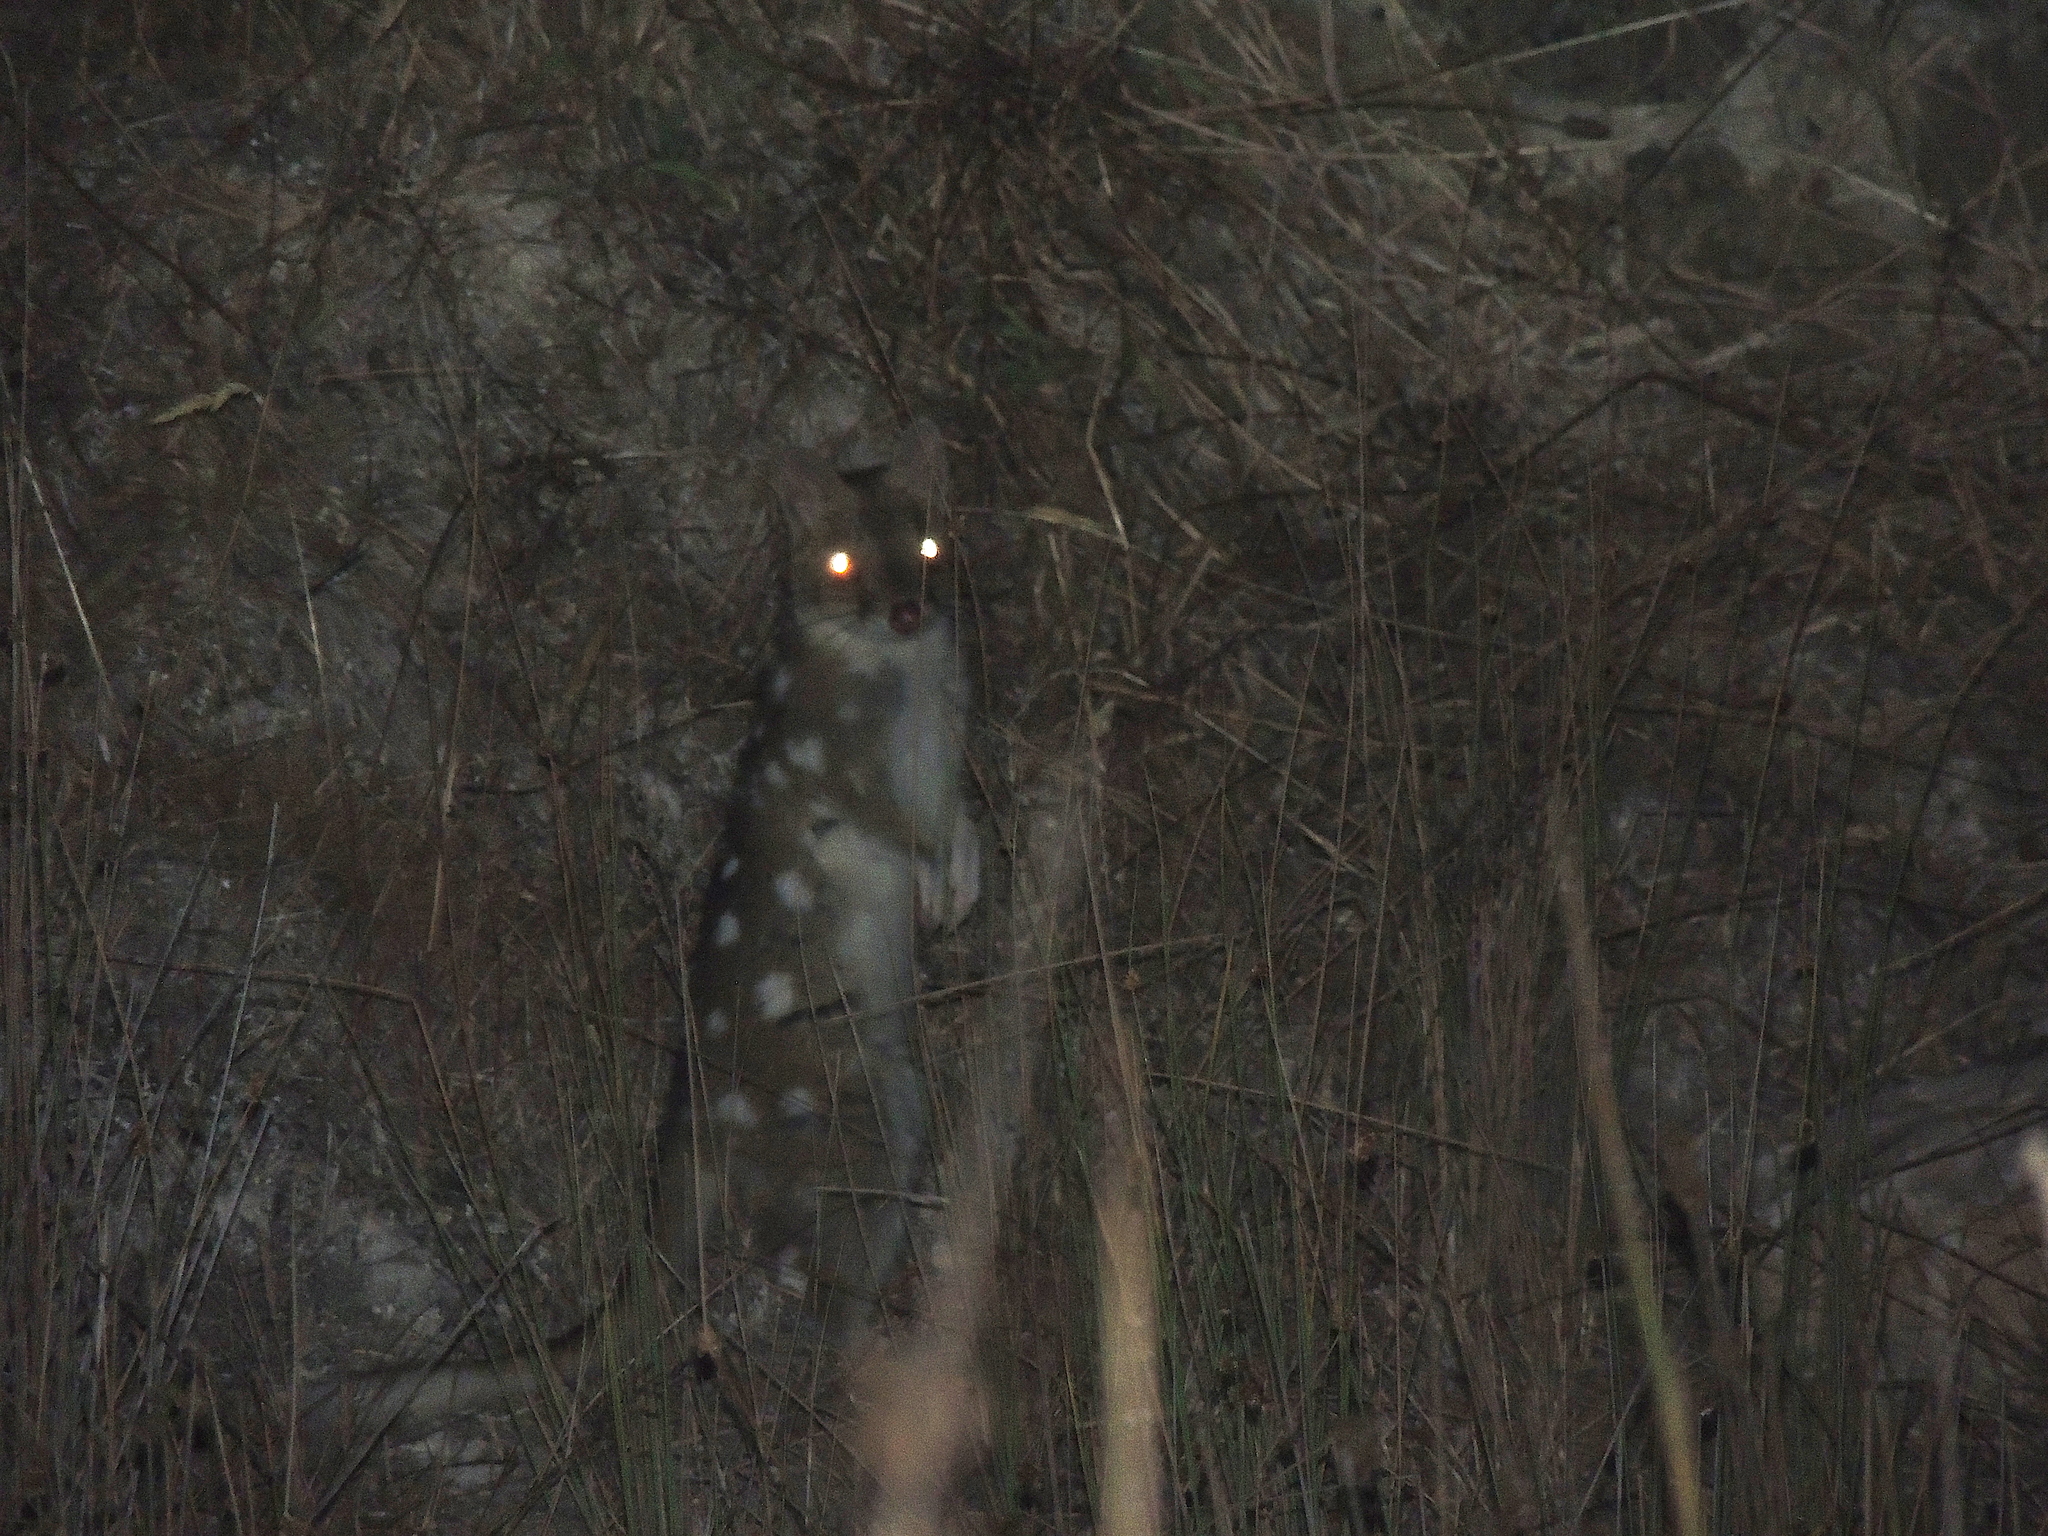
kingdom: Animalia
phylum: Chordata
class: Mammalia
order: Dasyuromorphia
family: Dasyuridae
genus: Dasyurus
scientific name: Dasyurus viverrinus
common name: Eastern quoll
